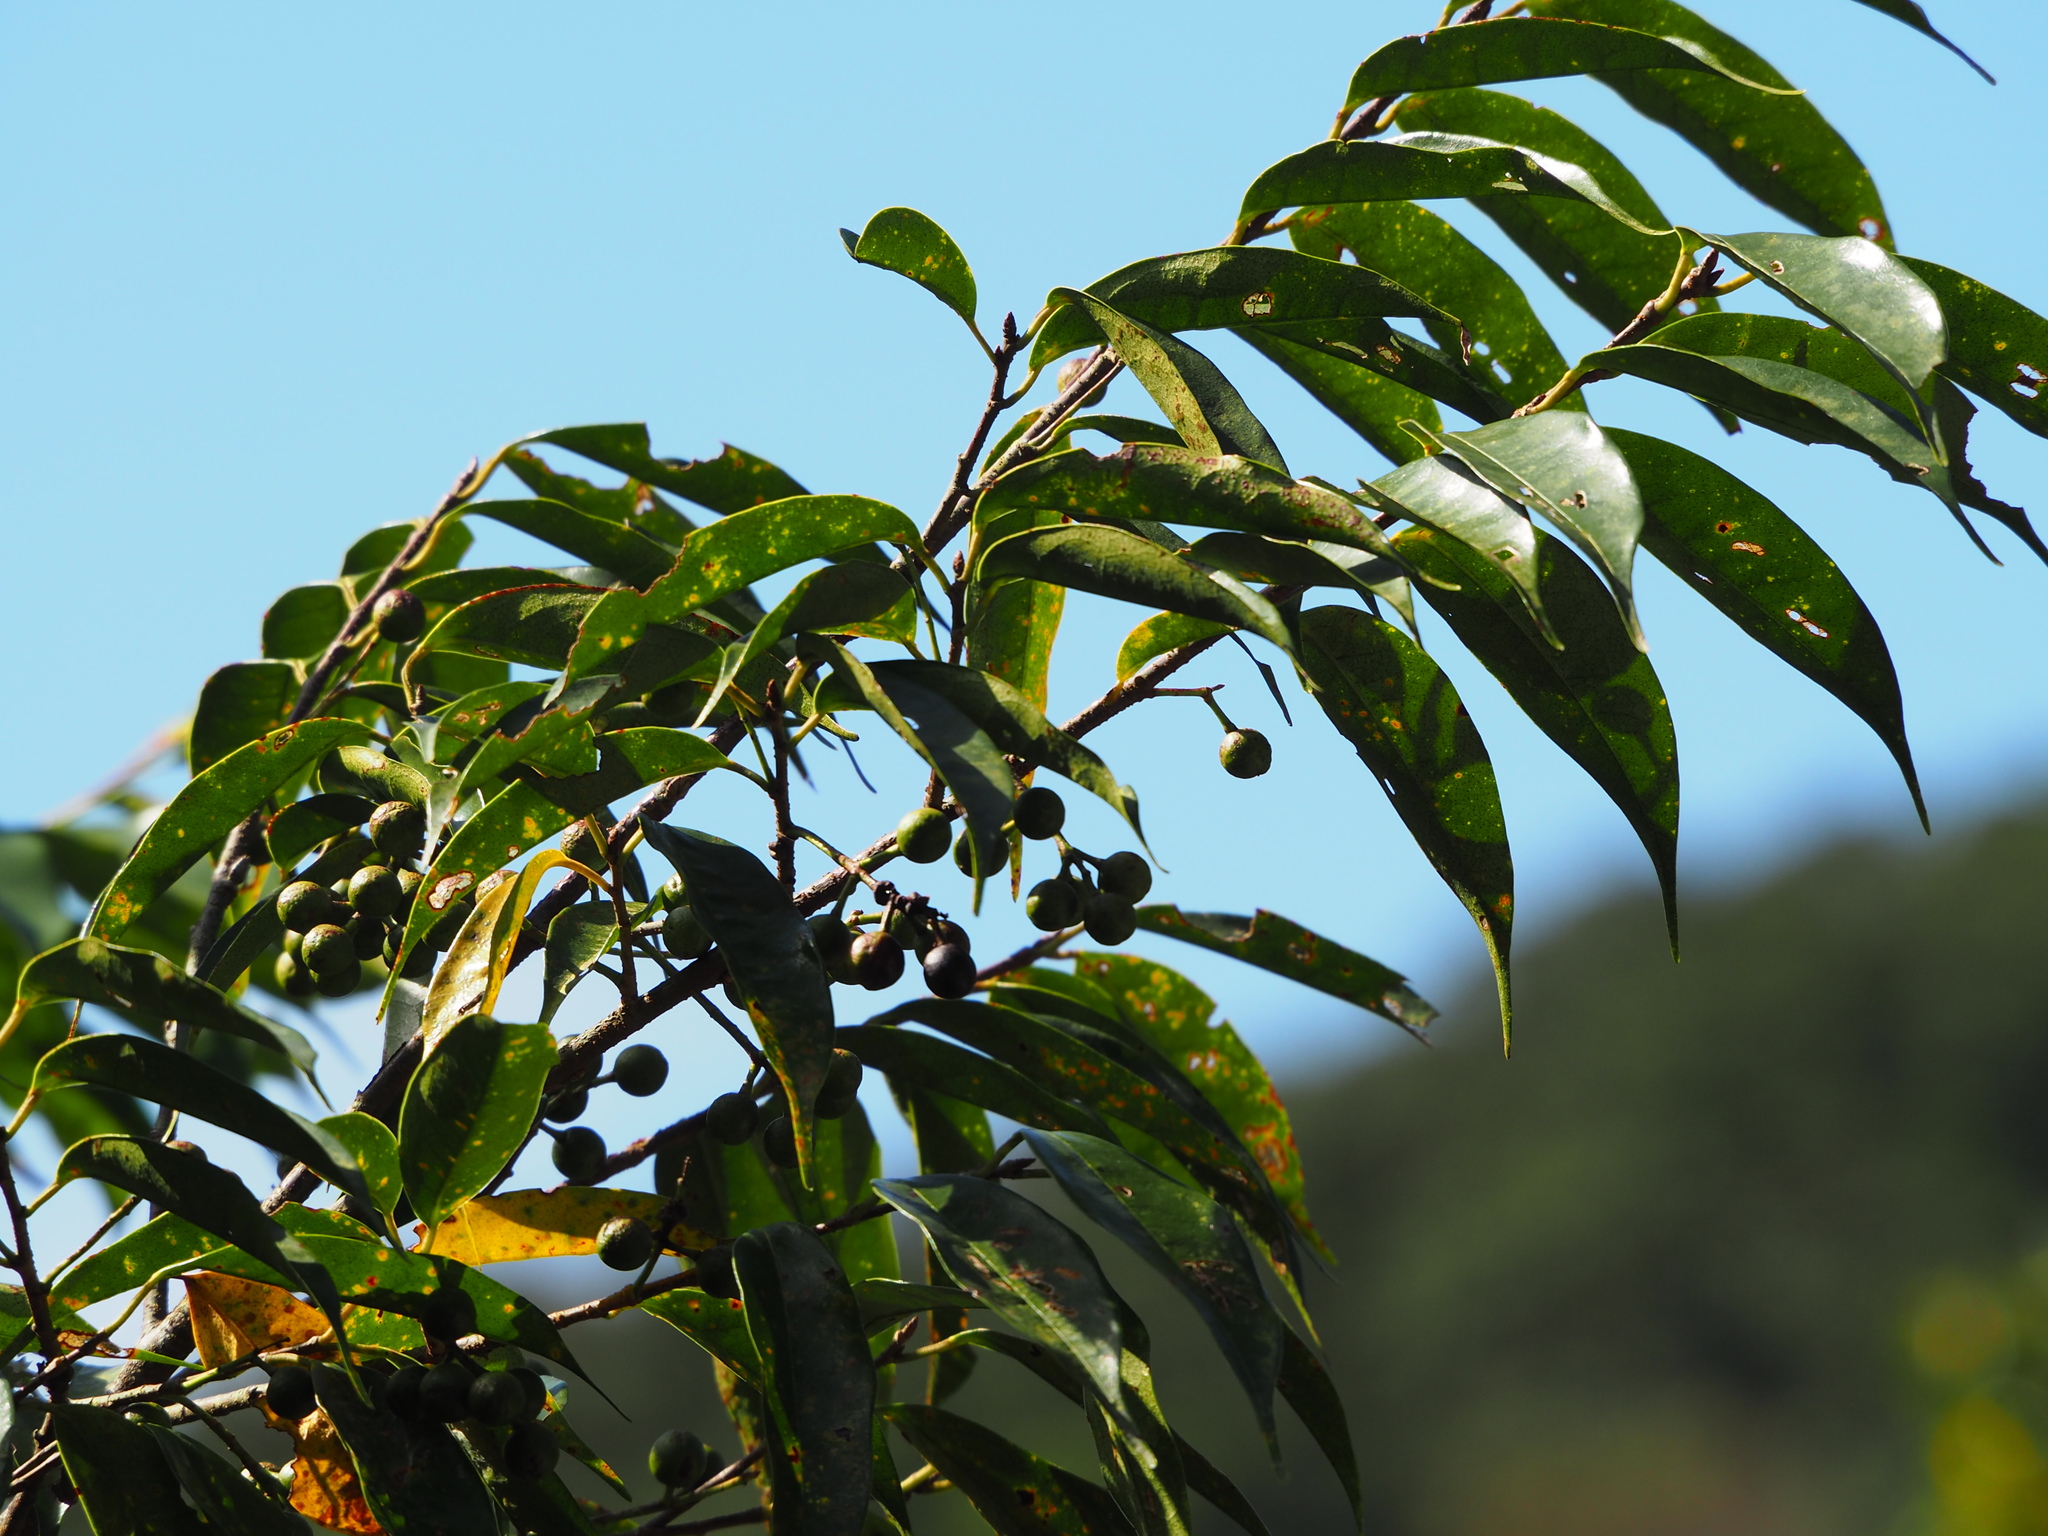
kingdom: Plantae
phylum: Tracheophyta
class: Magnoliopsida
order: Rosales
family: Rosaceae
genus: Prunus
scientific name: Prunus phaeosticta
